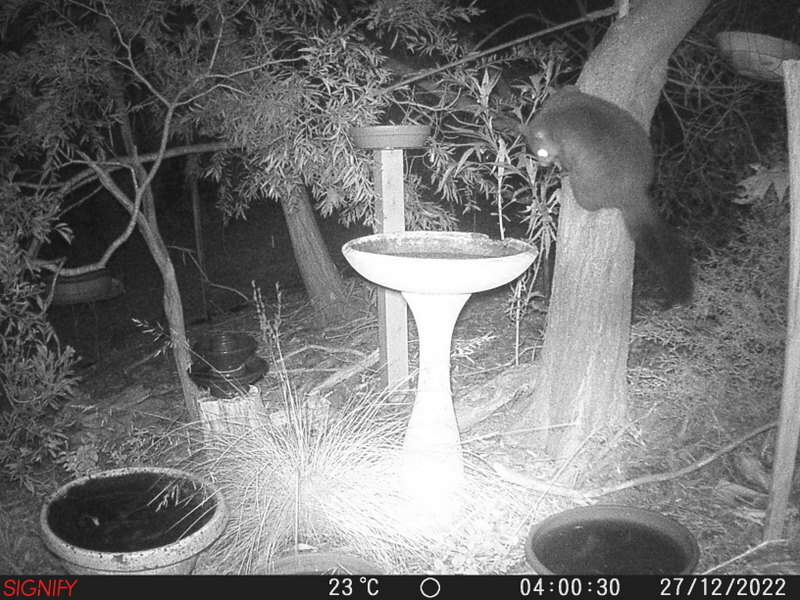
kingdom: Animalia
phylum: Chordata
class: Mammalia
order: Diprotodontia
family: Phalangeridae
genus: Trichosurus
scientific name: Trichosurus vulpecula
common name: Common brushtail
